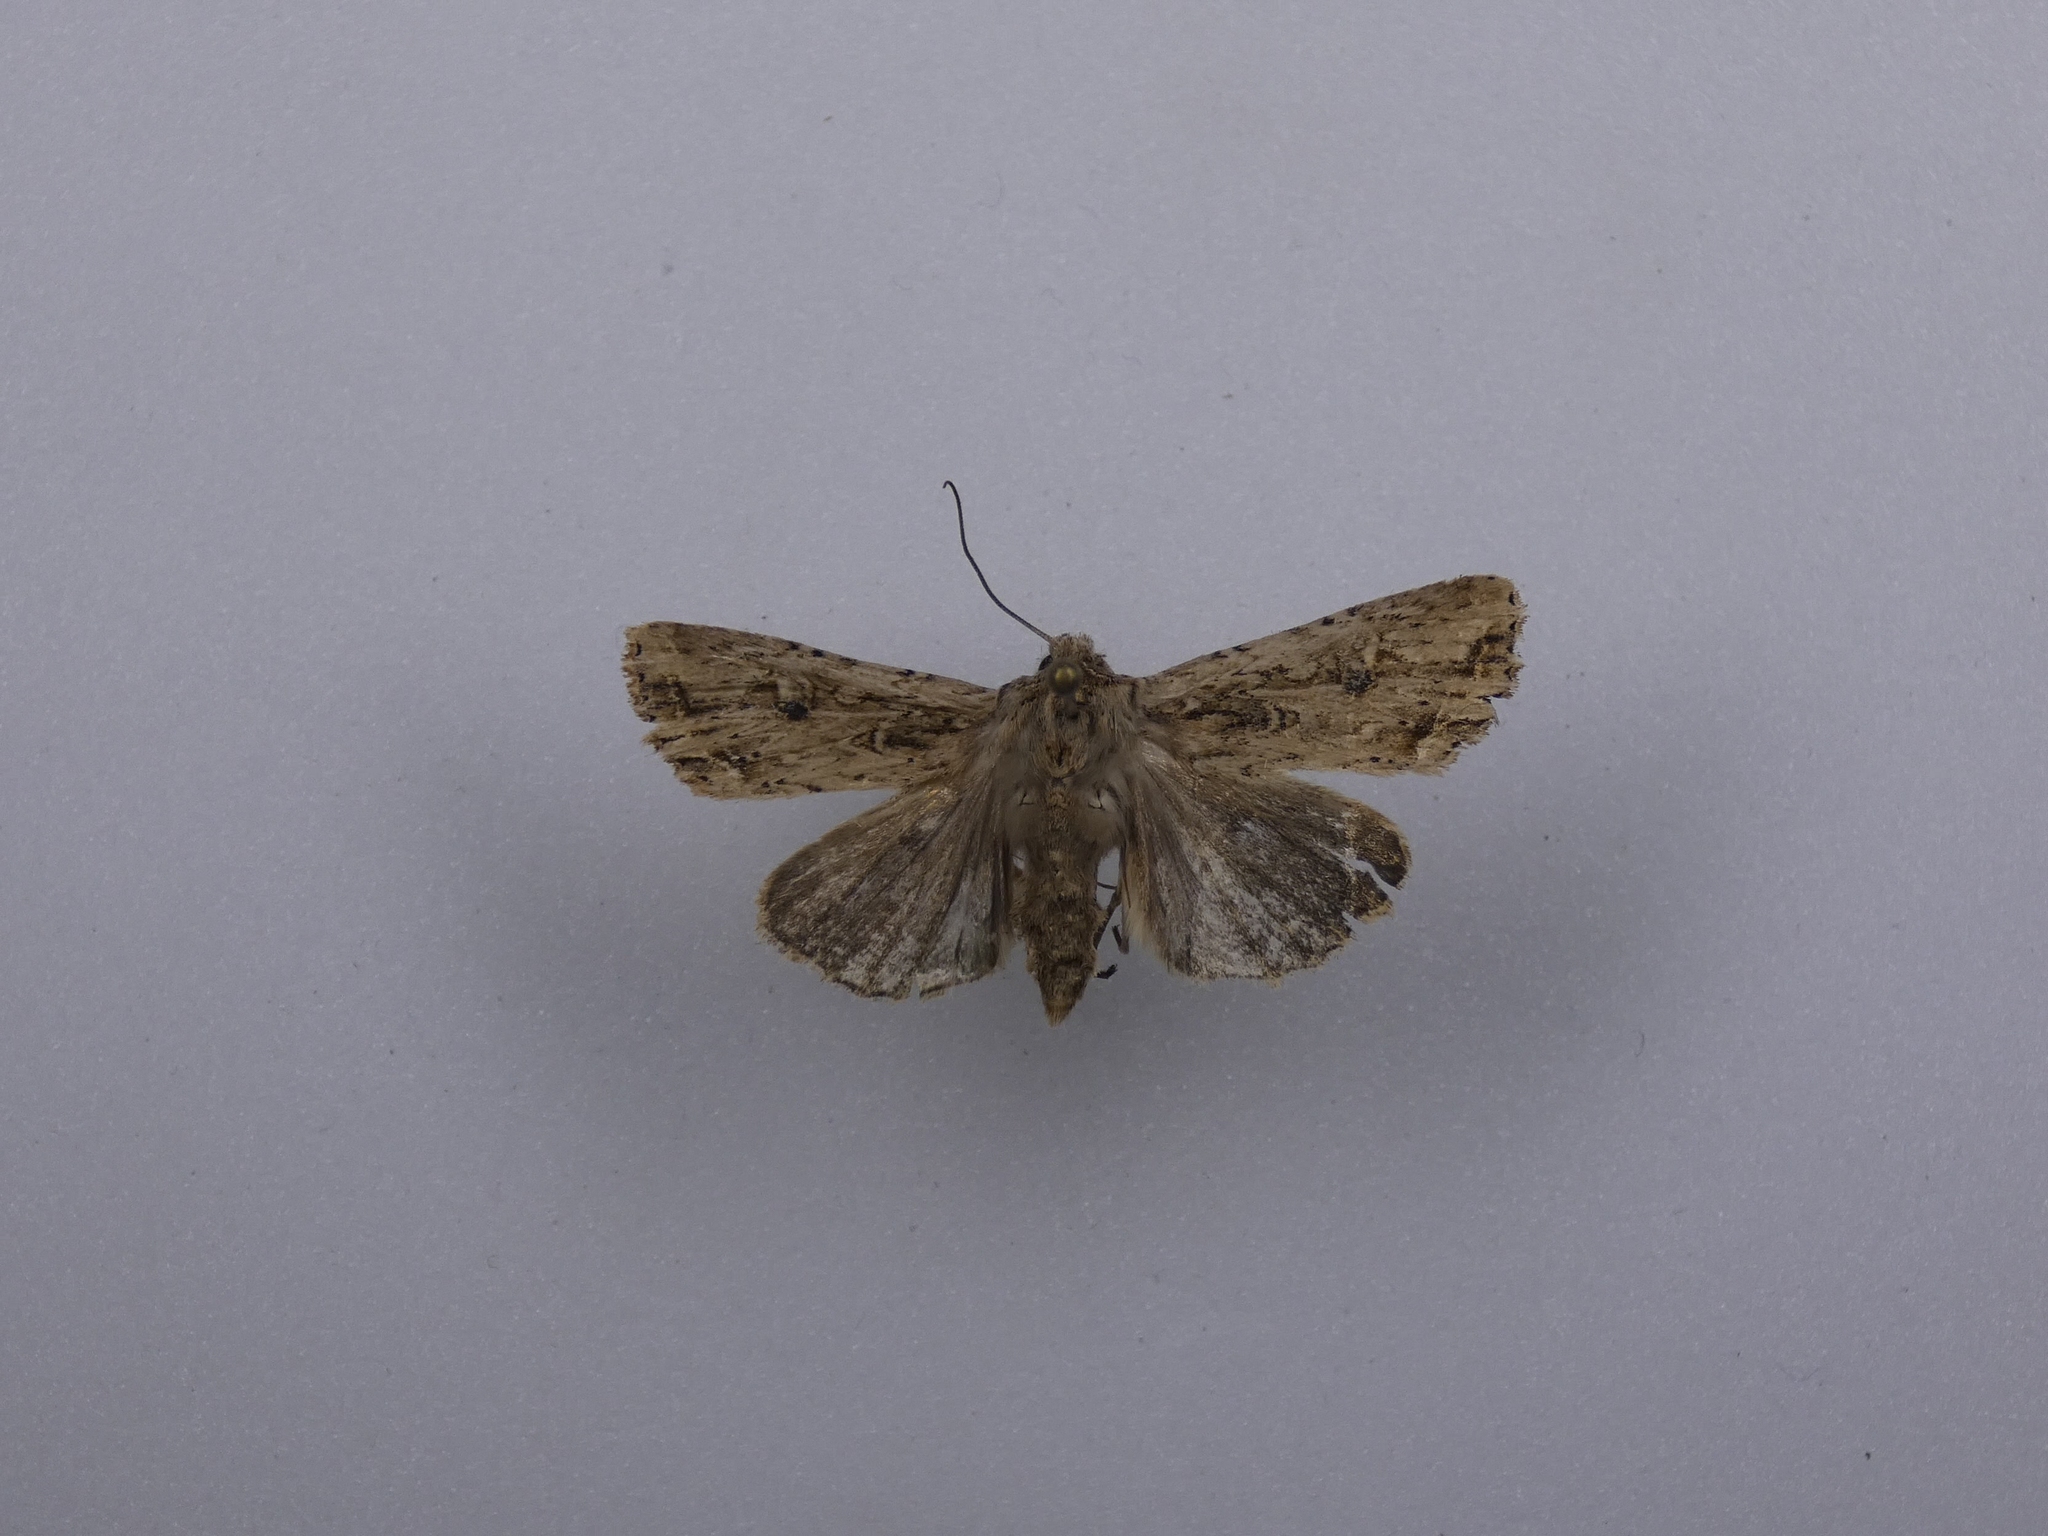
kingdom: Animalia
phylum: Arthropoda
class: Insecta
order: Lepidoptera
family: Noctuidae
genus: Ichneutica
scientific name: Ichneutica lignana
